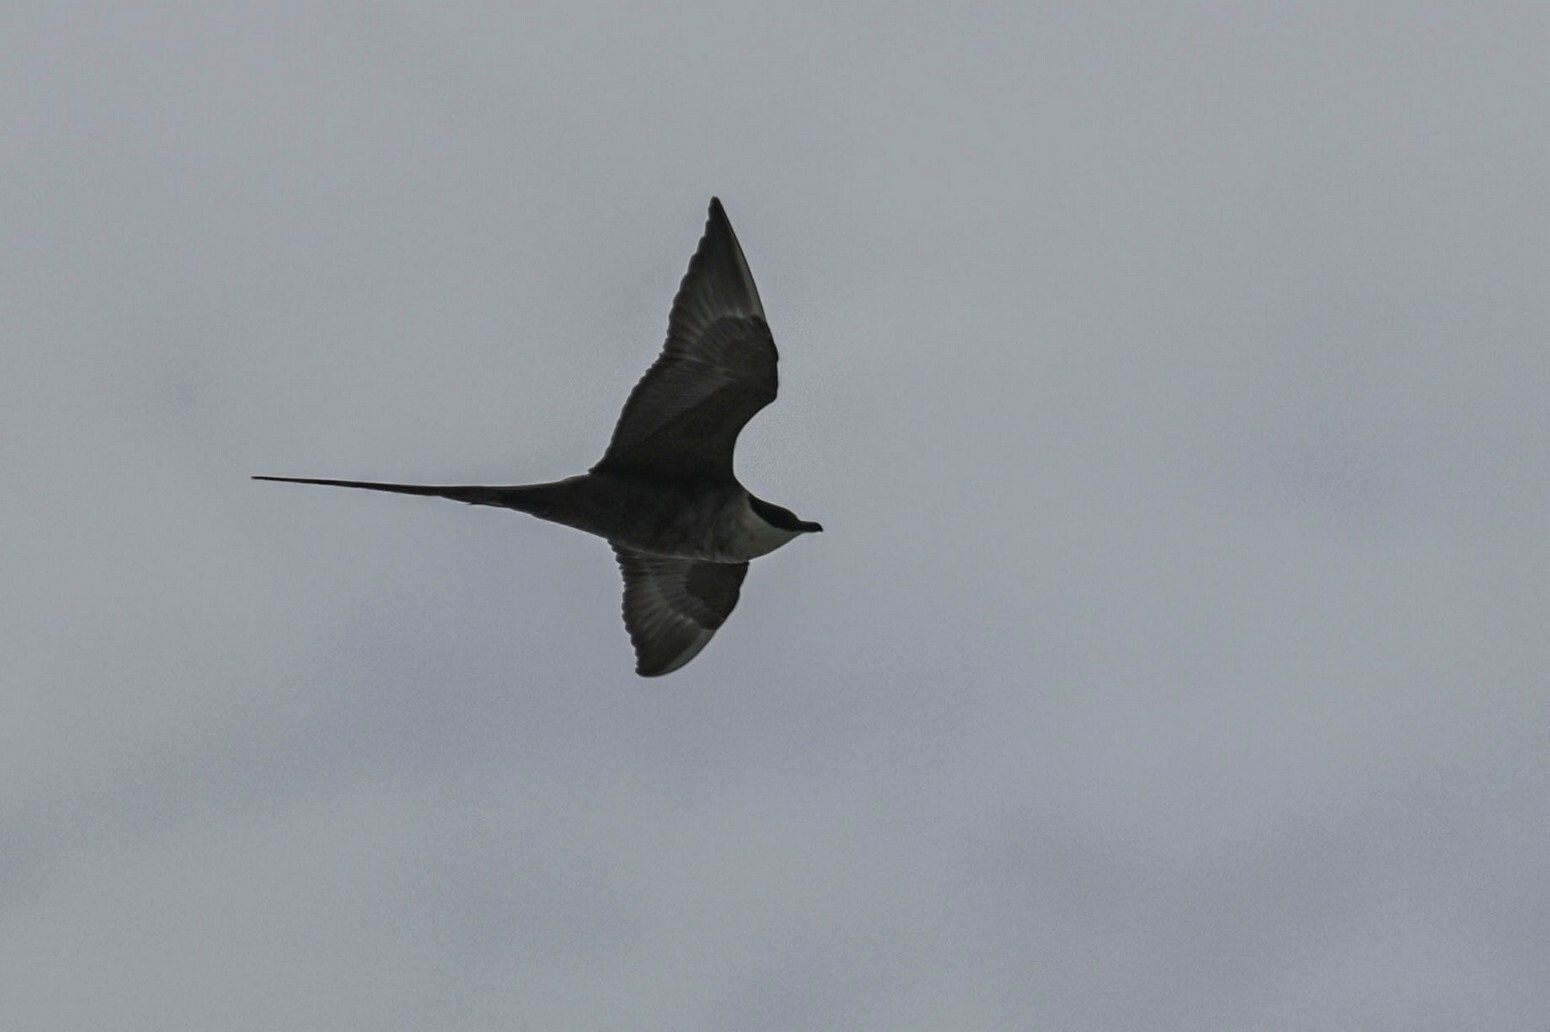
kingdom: Animalia
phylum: Chordata
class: Aves
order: Charadriiformes
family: Stercorariidae
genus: Stercorarius
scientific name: Stercorarius longicaudus
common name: Long-tailed jaeger
